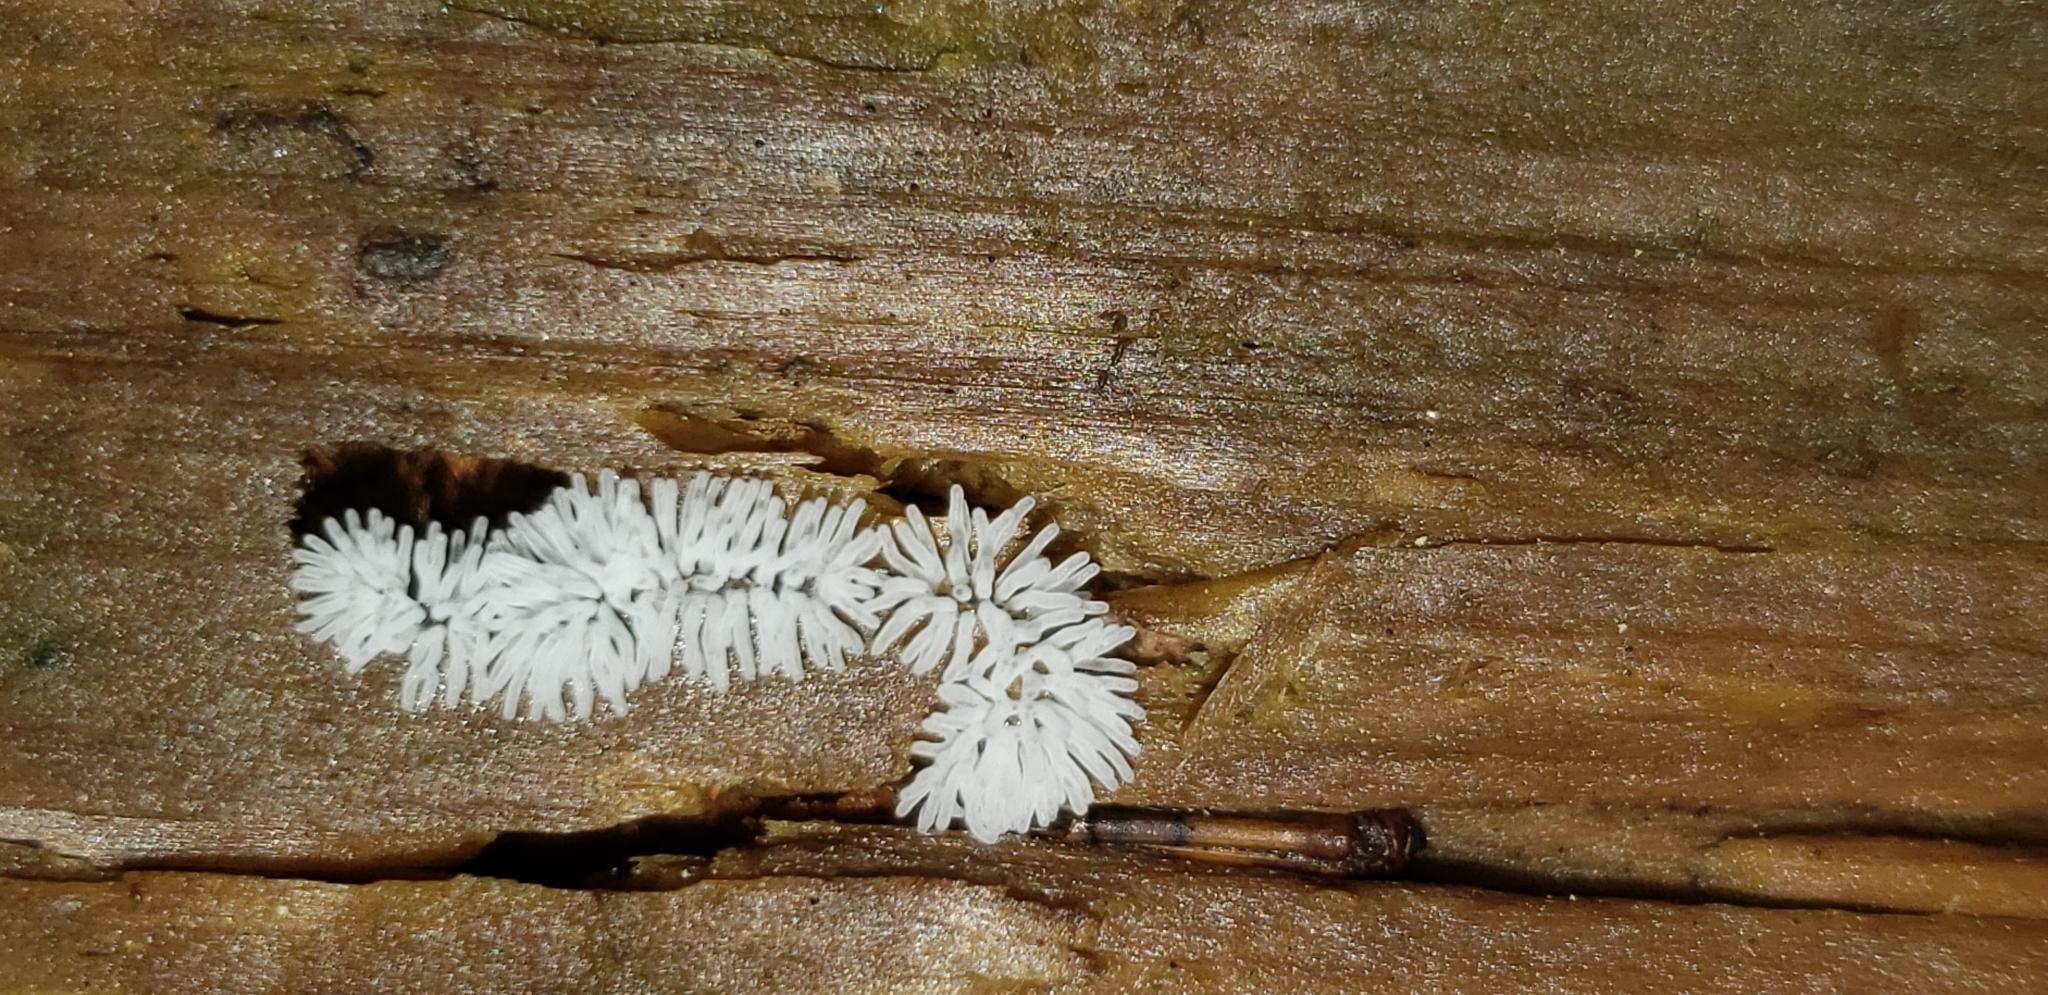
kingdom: Protozoa
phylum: Mycetozoa
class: Protosteliomycetes
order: Ceratiomyxales
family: Ceratiomyxaceae
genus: Ceratiomyxa
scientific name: Ceratiomyxa fruticulosa
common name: Honeycomb coral slime mold
